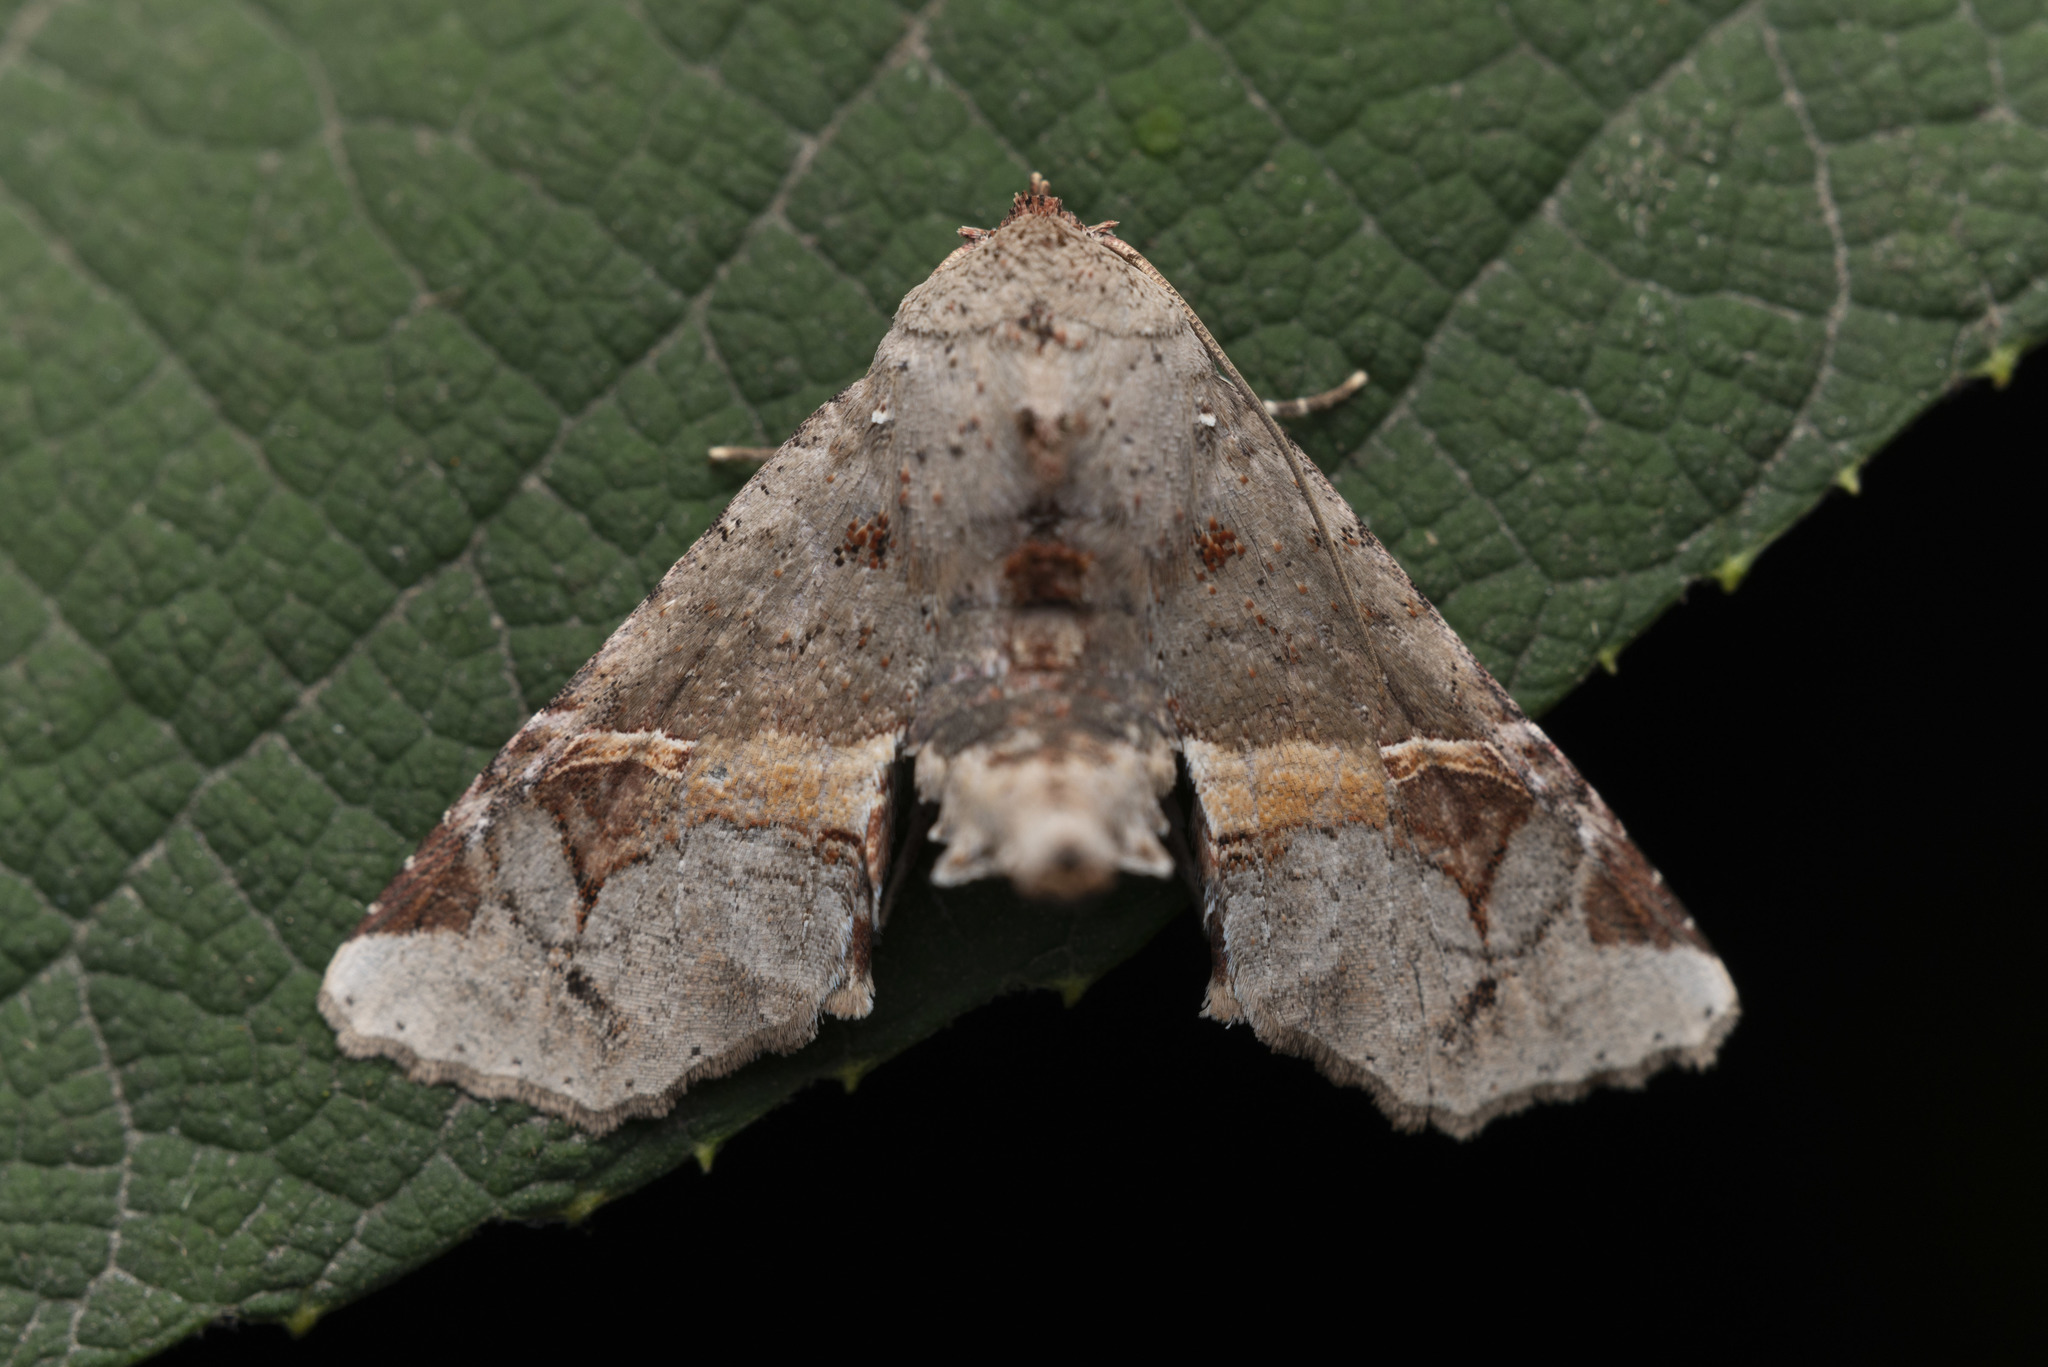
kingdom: Animalia
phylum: Arthropoda
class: Insecta
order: Lepidoptera
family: Euteliidae
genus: Targalla
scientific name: Targalla silvicola
